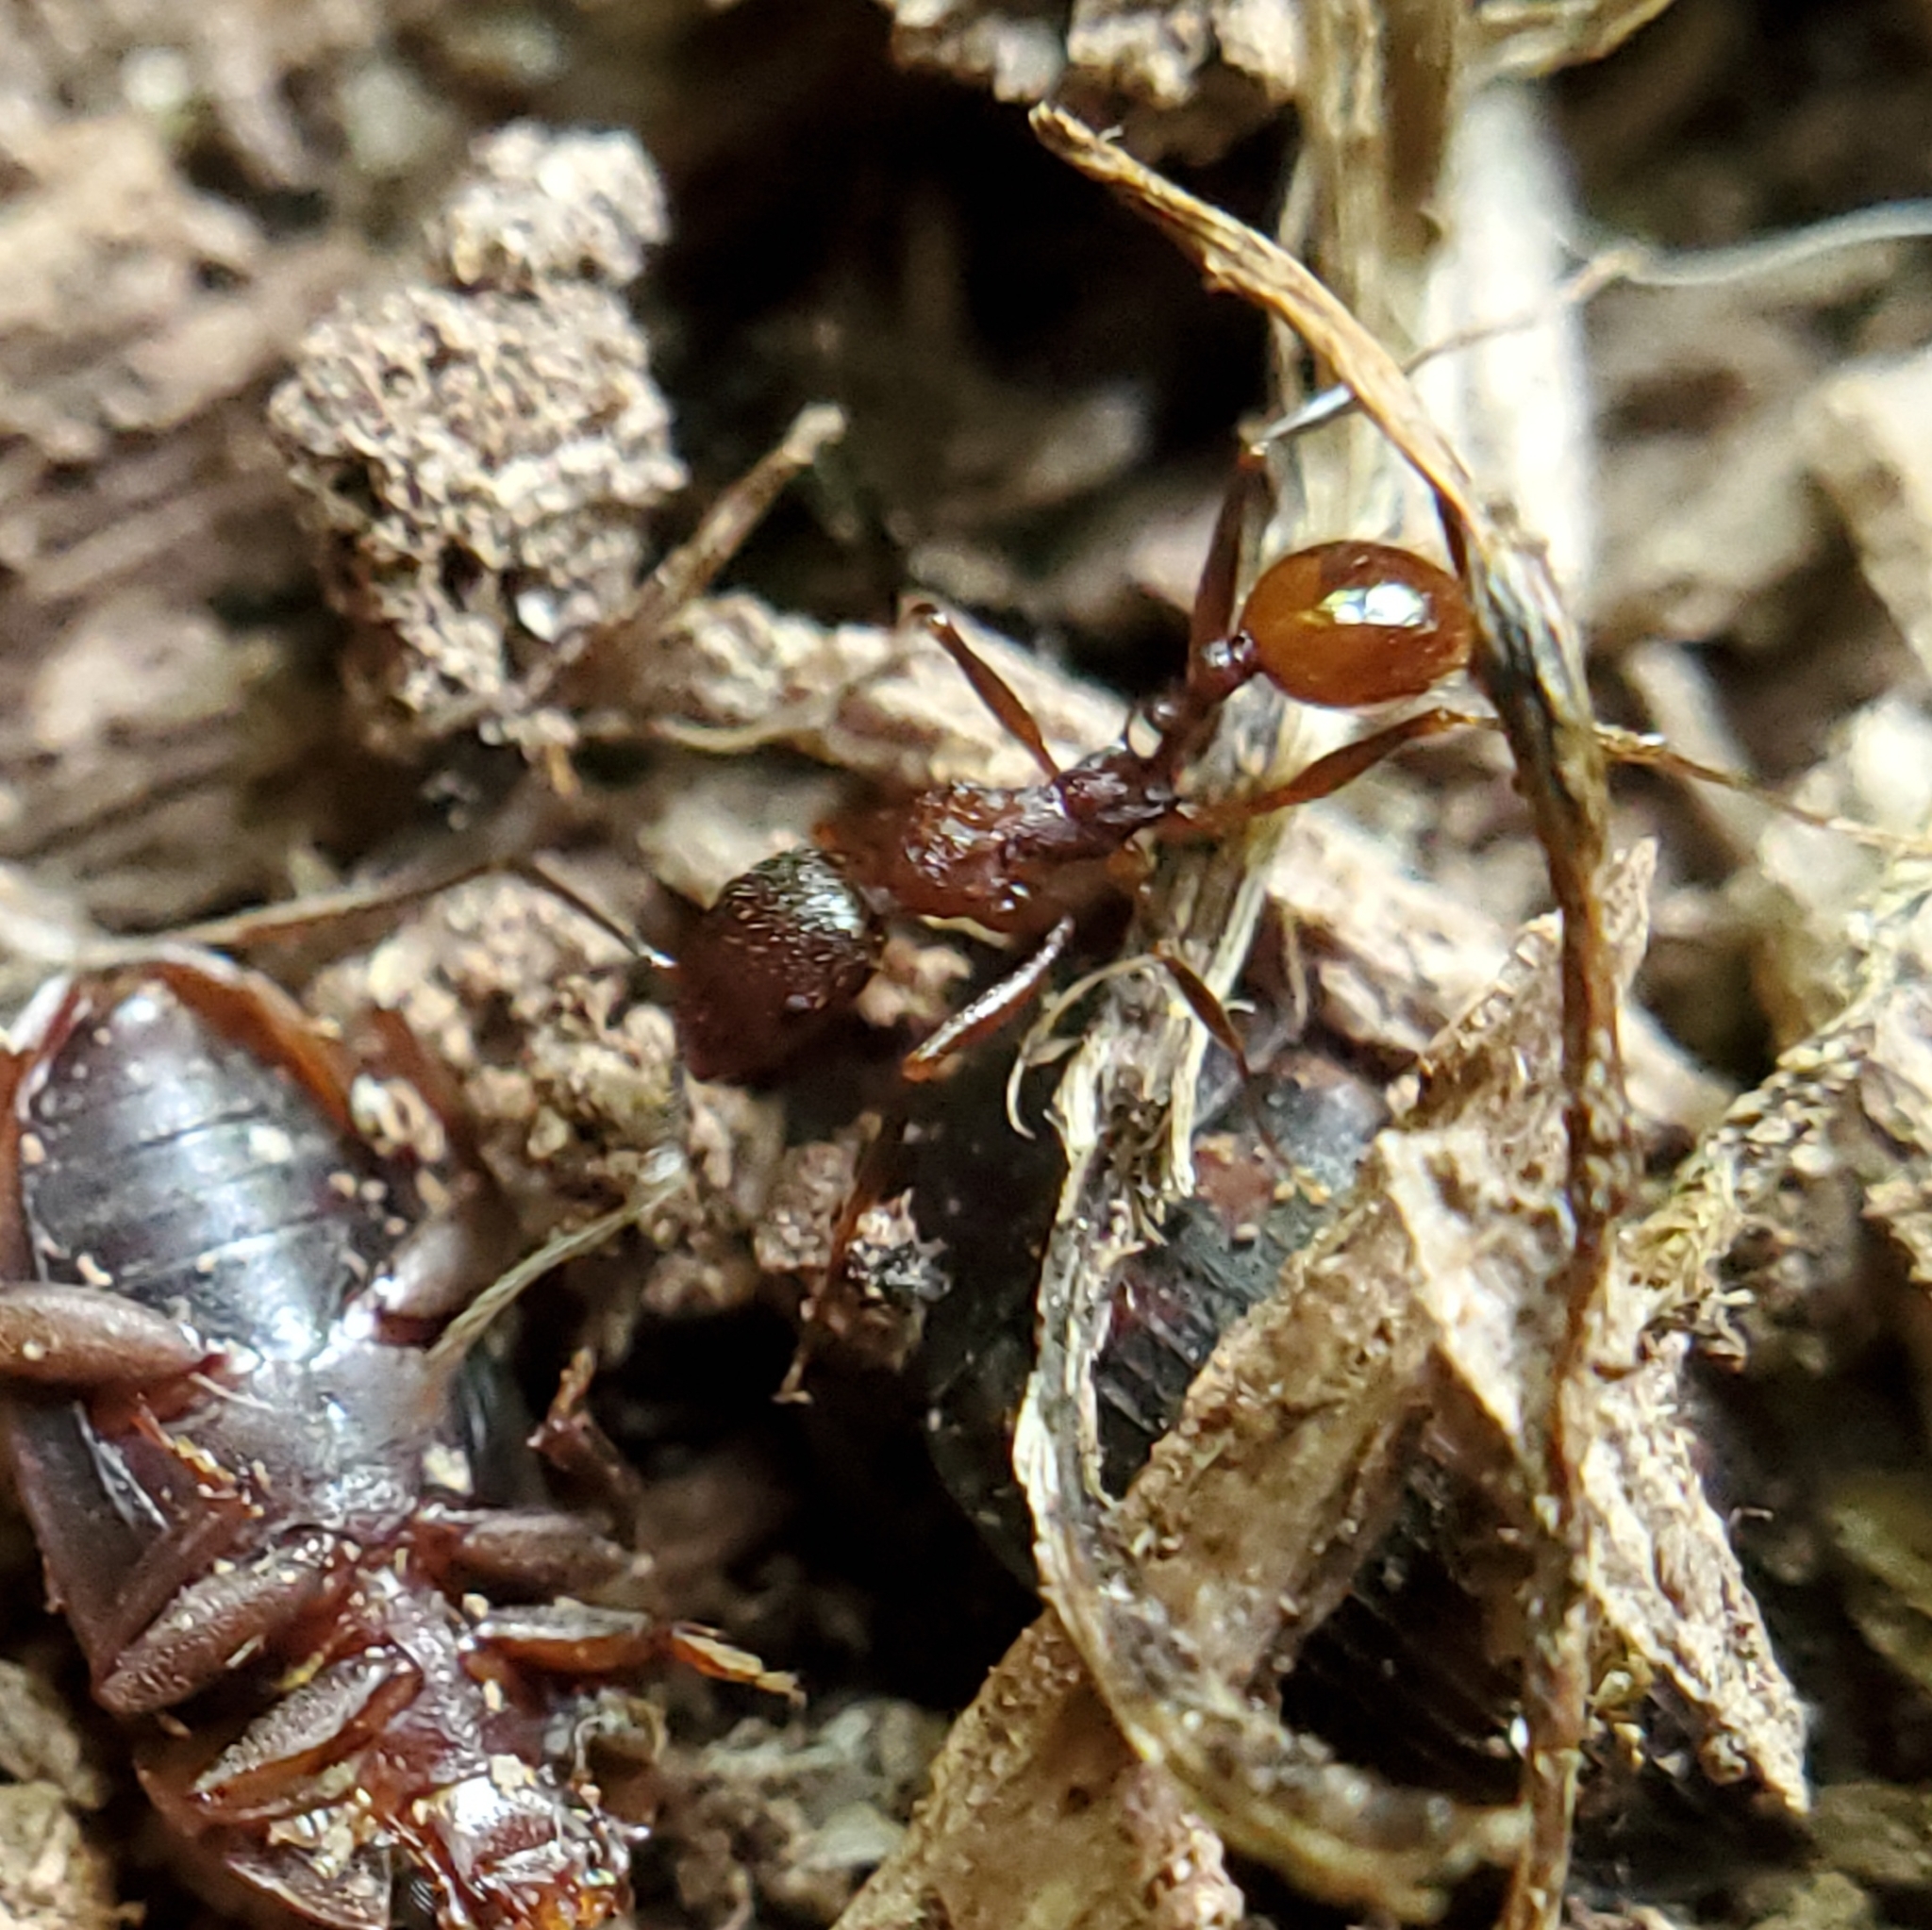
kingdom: Animalia
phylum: Arthropoda
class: Insecta
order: Hymenoptera
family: Formicidae
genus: Aphaenogaster
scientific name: Aphaenogaster tennesseensis
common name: Tennessee thread-waisted ant
